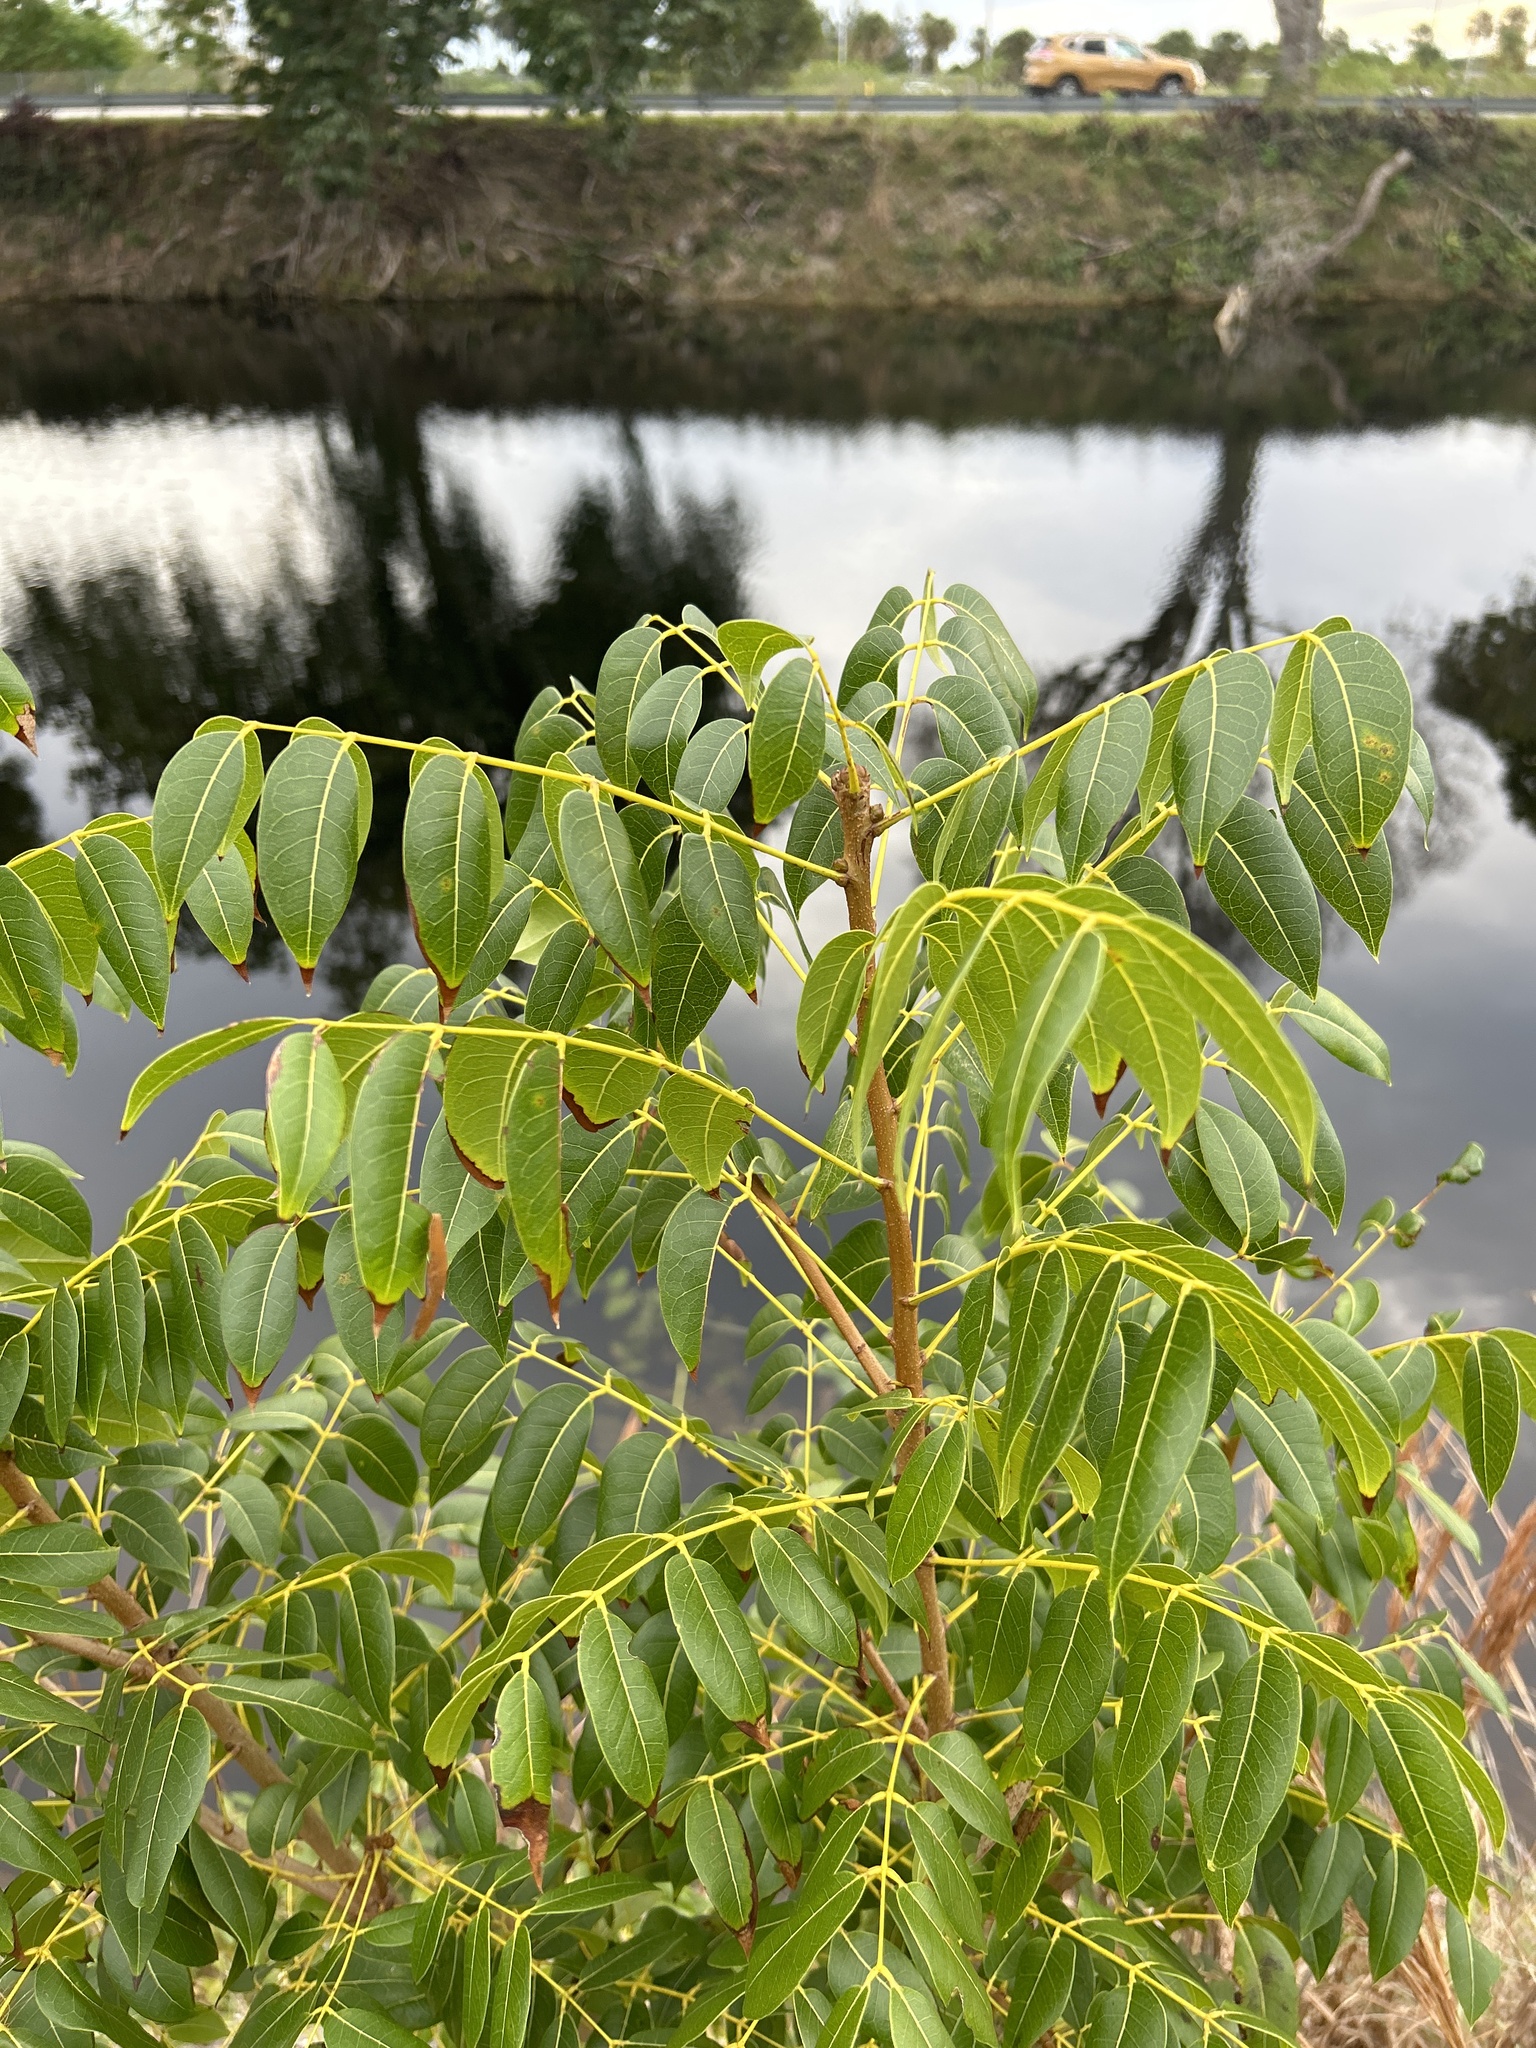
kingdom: Plantae
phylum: Tracheophyta
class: Magnoliopsida
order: Sapindales
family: Meliaceae
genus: Swietenia
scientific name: Swietenia mahagoni
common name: West indian mahogany
